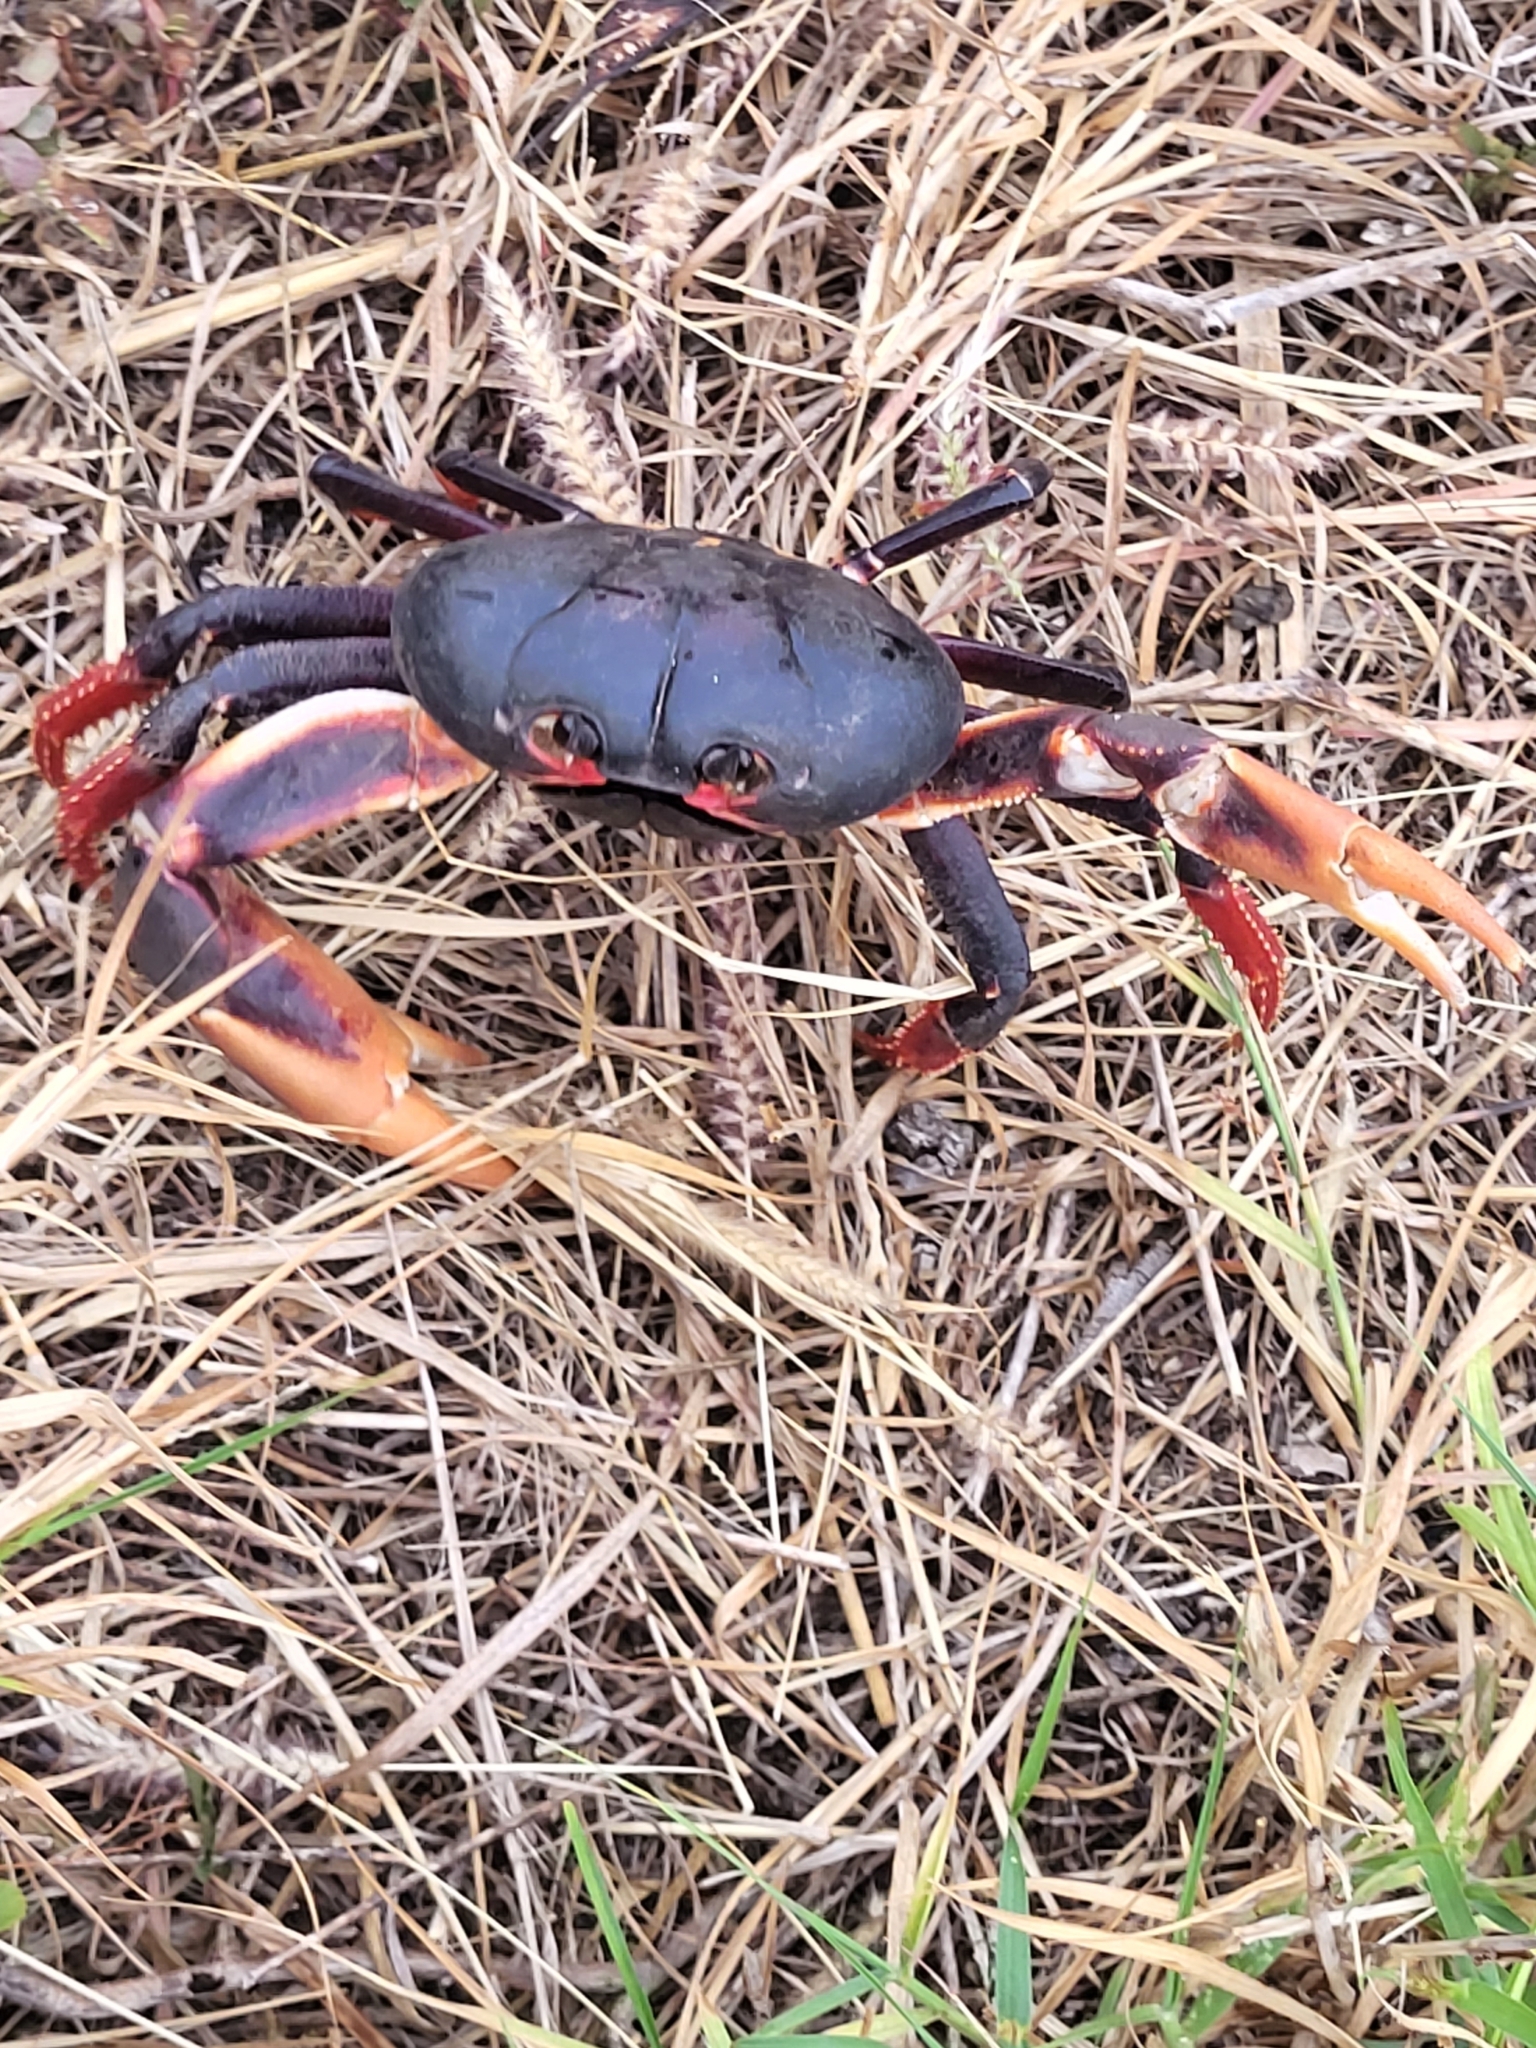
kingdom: Animalia
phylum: Arthropoda
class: Malacostraca
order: Decapoda
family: Gecarcinidae
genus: Gecarcinus
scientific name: Gecarcinus ruricola
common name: Black land crab
